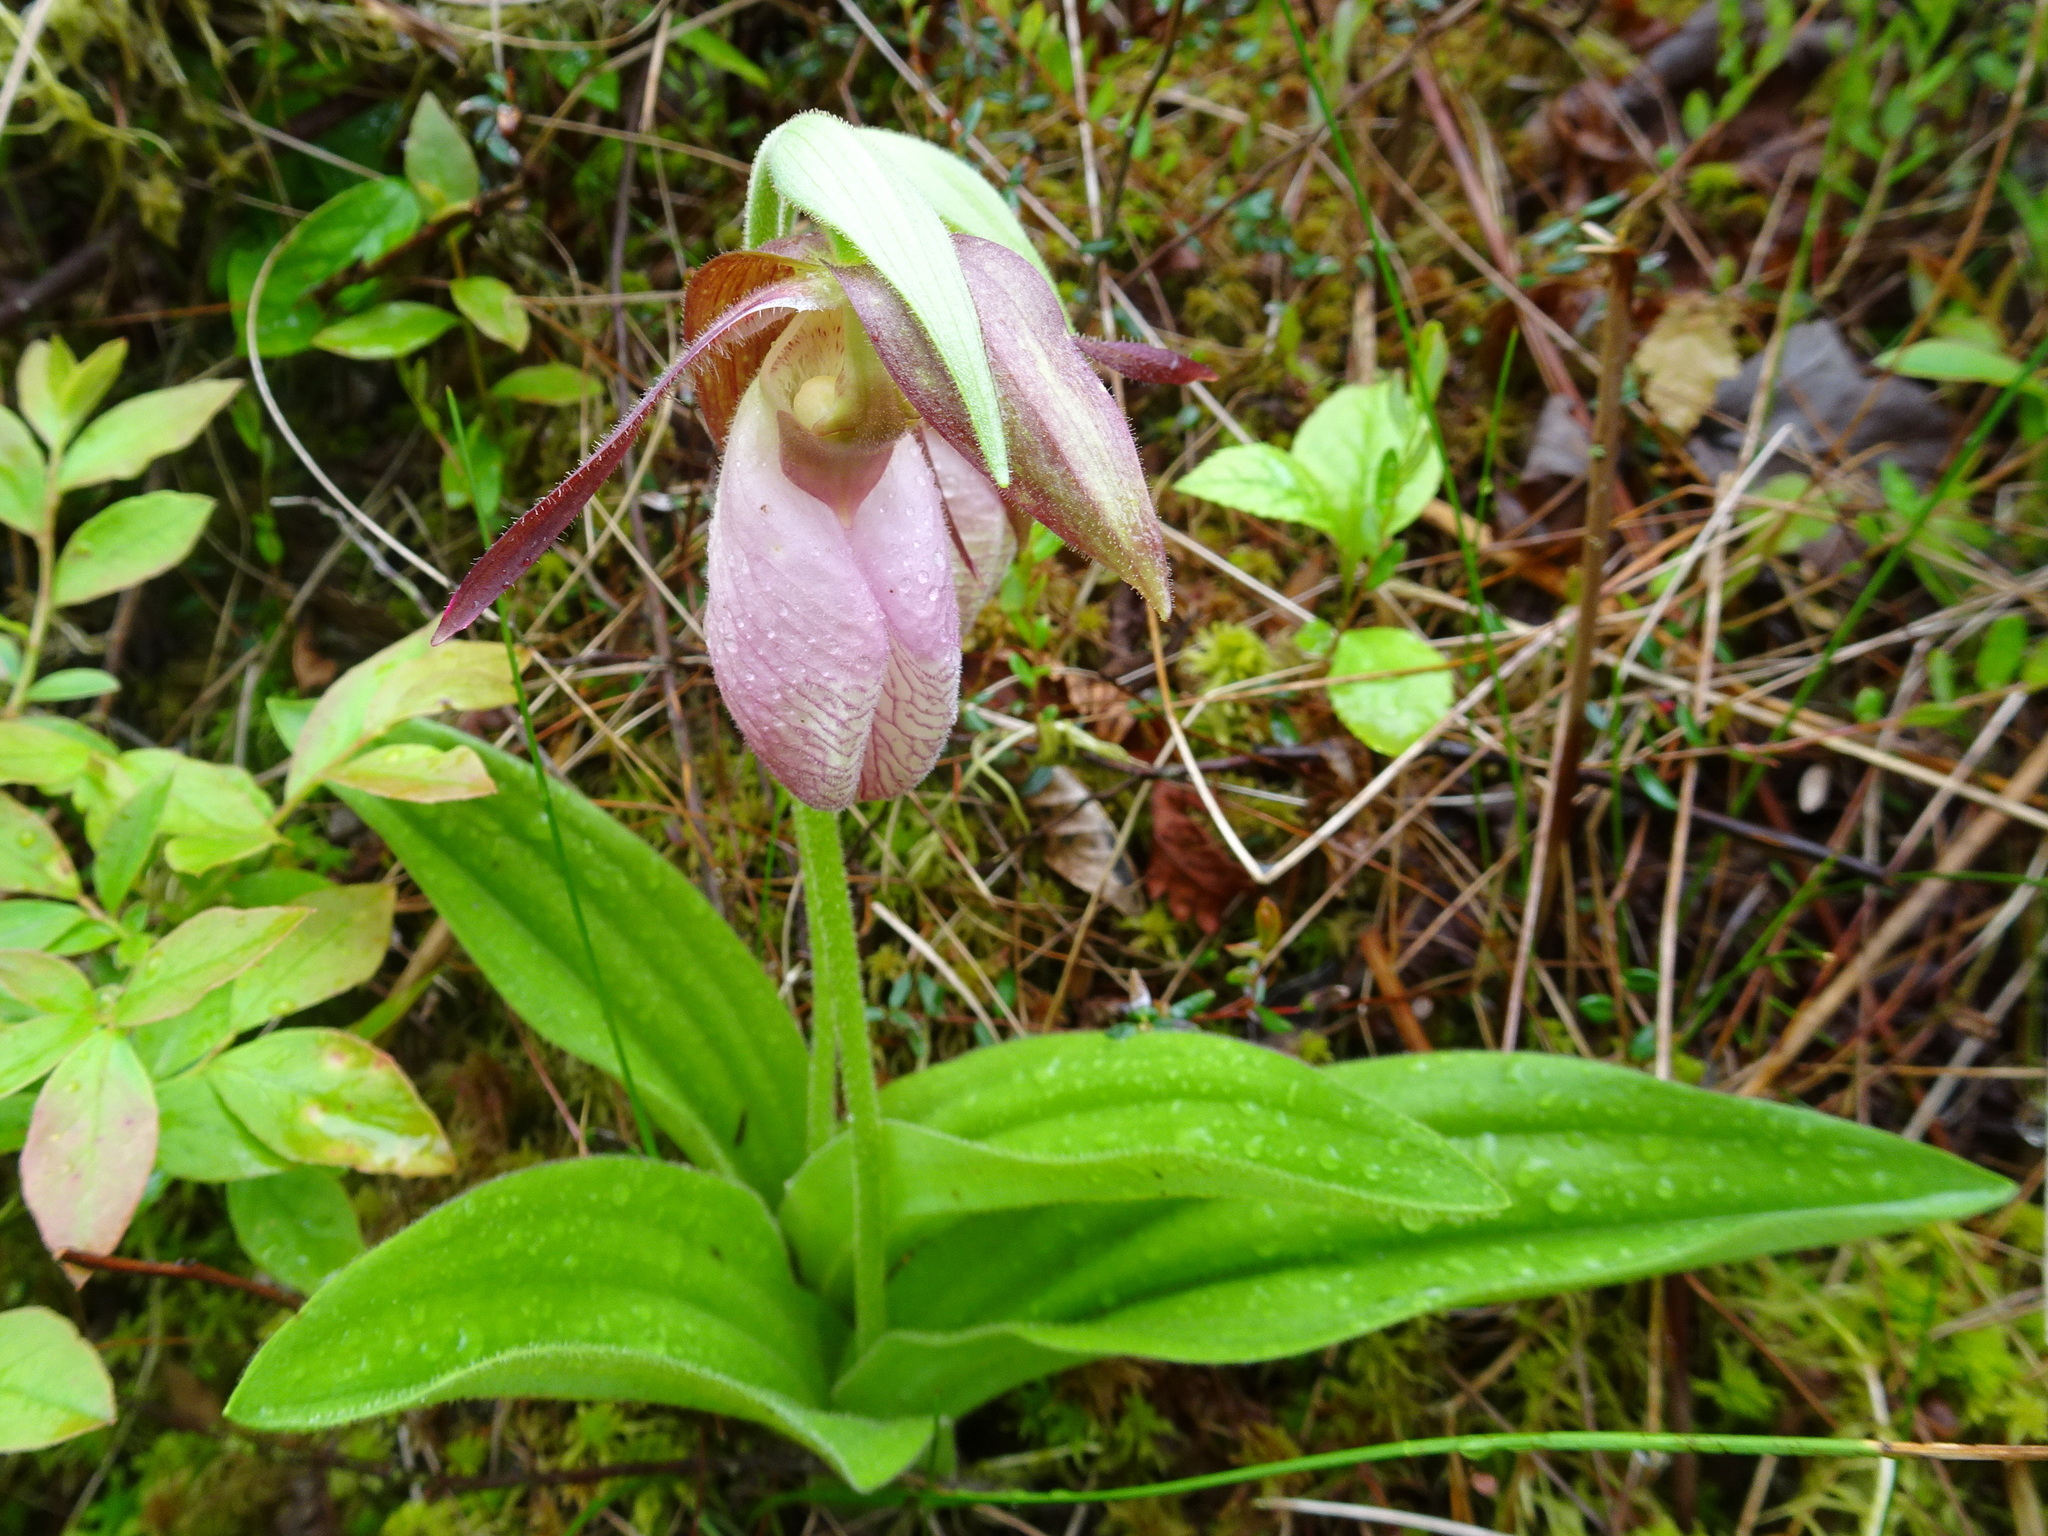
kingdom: Plantae
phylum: Tracheophyta
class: Liliopsida
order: Asparagales
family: Orchidaceae
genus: Cypripedium
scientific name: Cypripedium acaule
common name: Pink lady's-slipper
